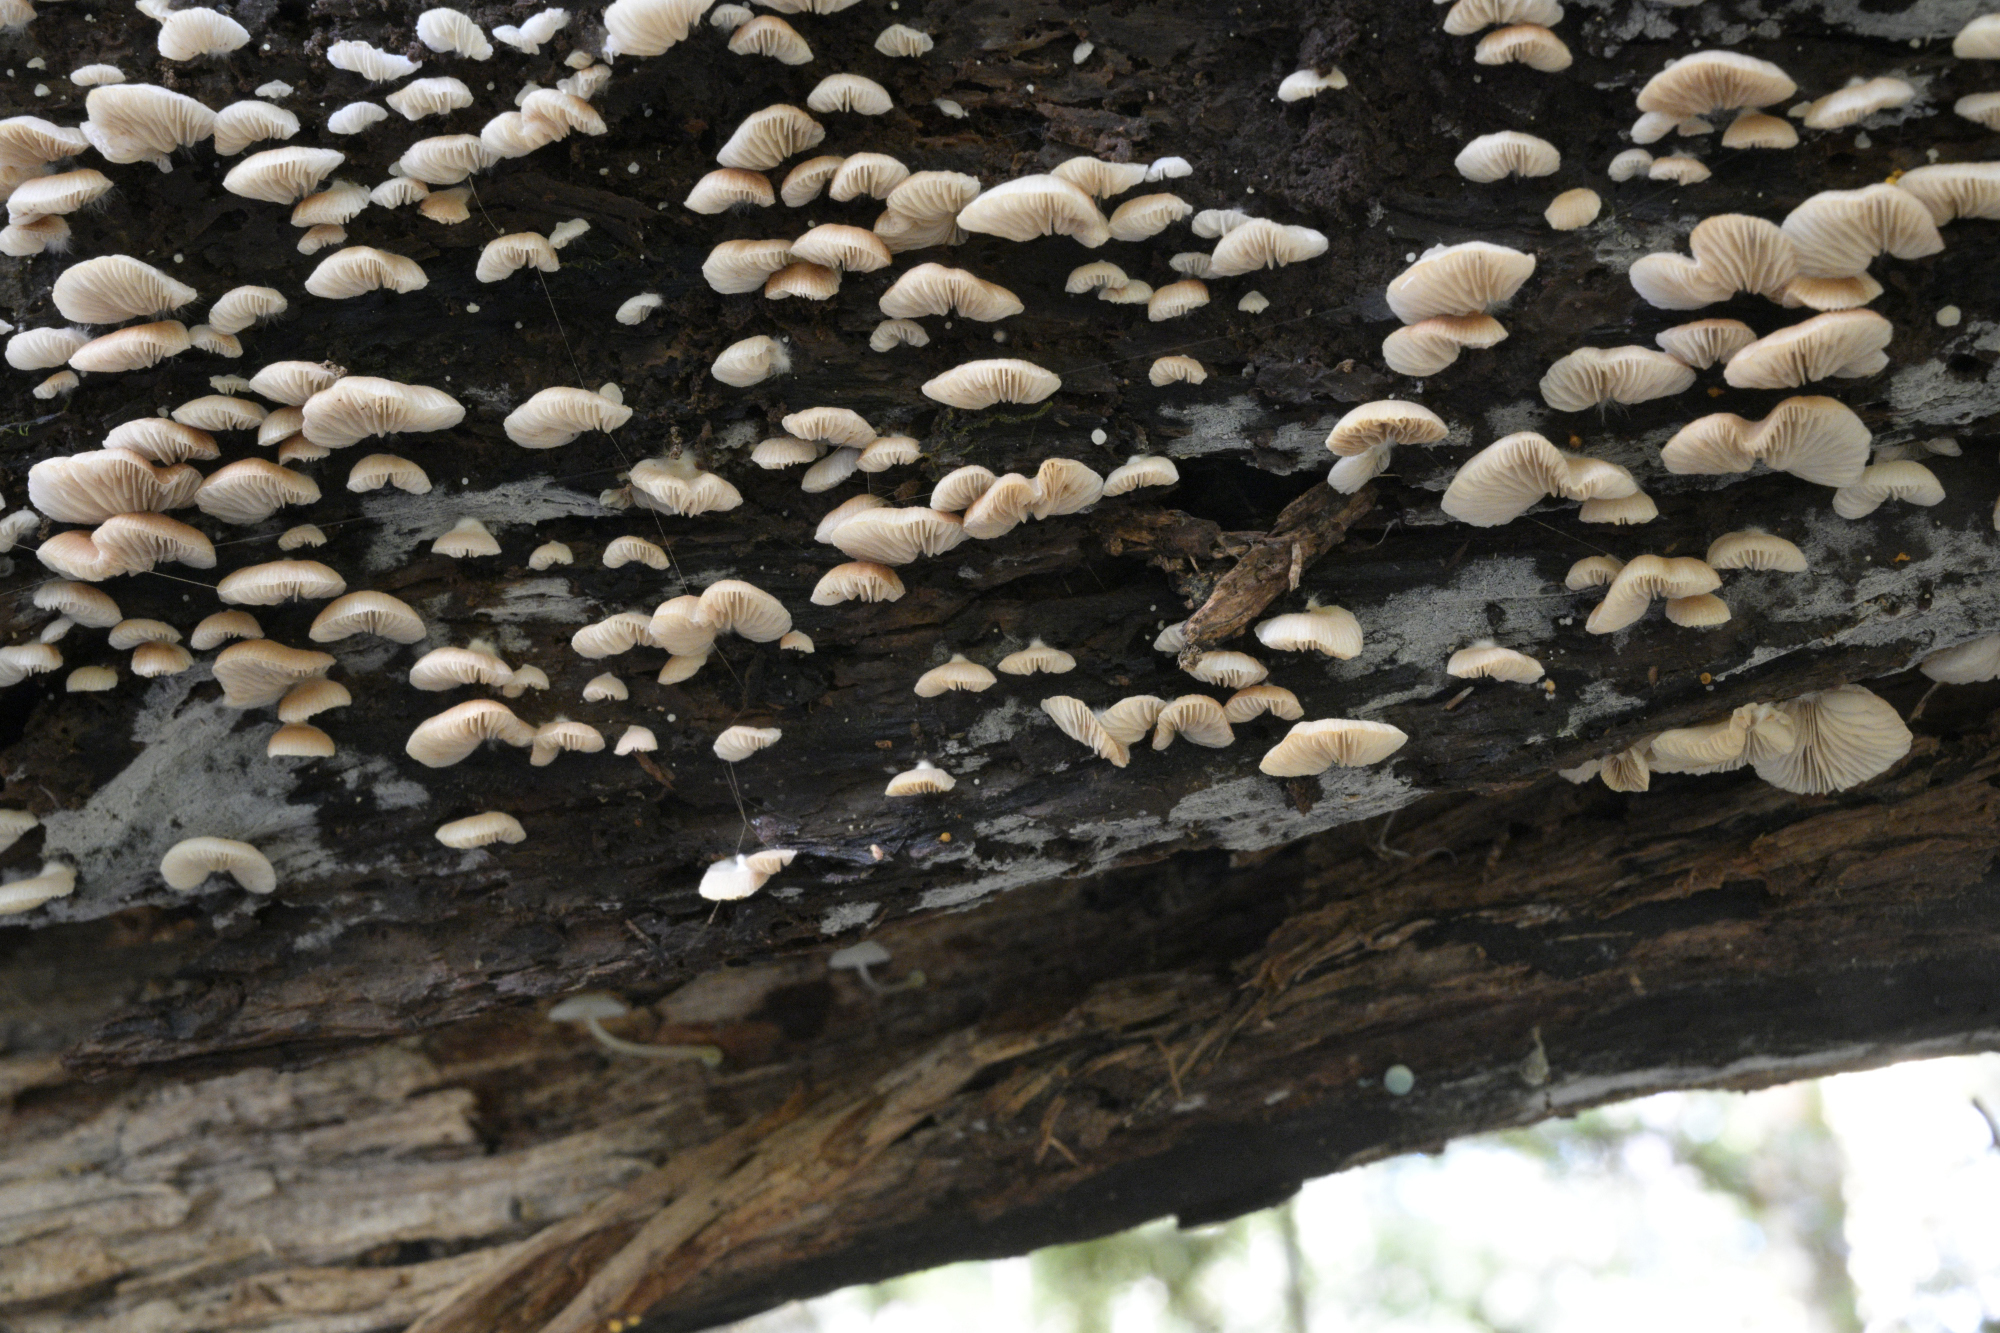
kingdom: Fungi
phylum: Basidiomycota
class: Agaricomycetes
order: Agaricales
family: Crepidotaceae
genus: Crepidotus
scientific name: Crepidotus lateralipes
